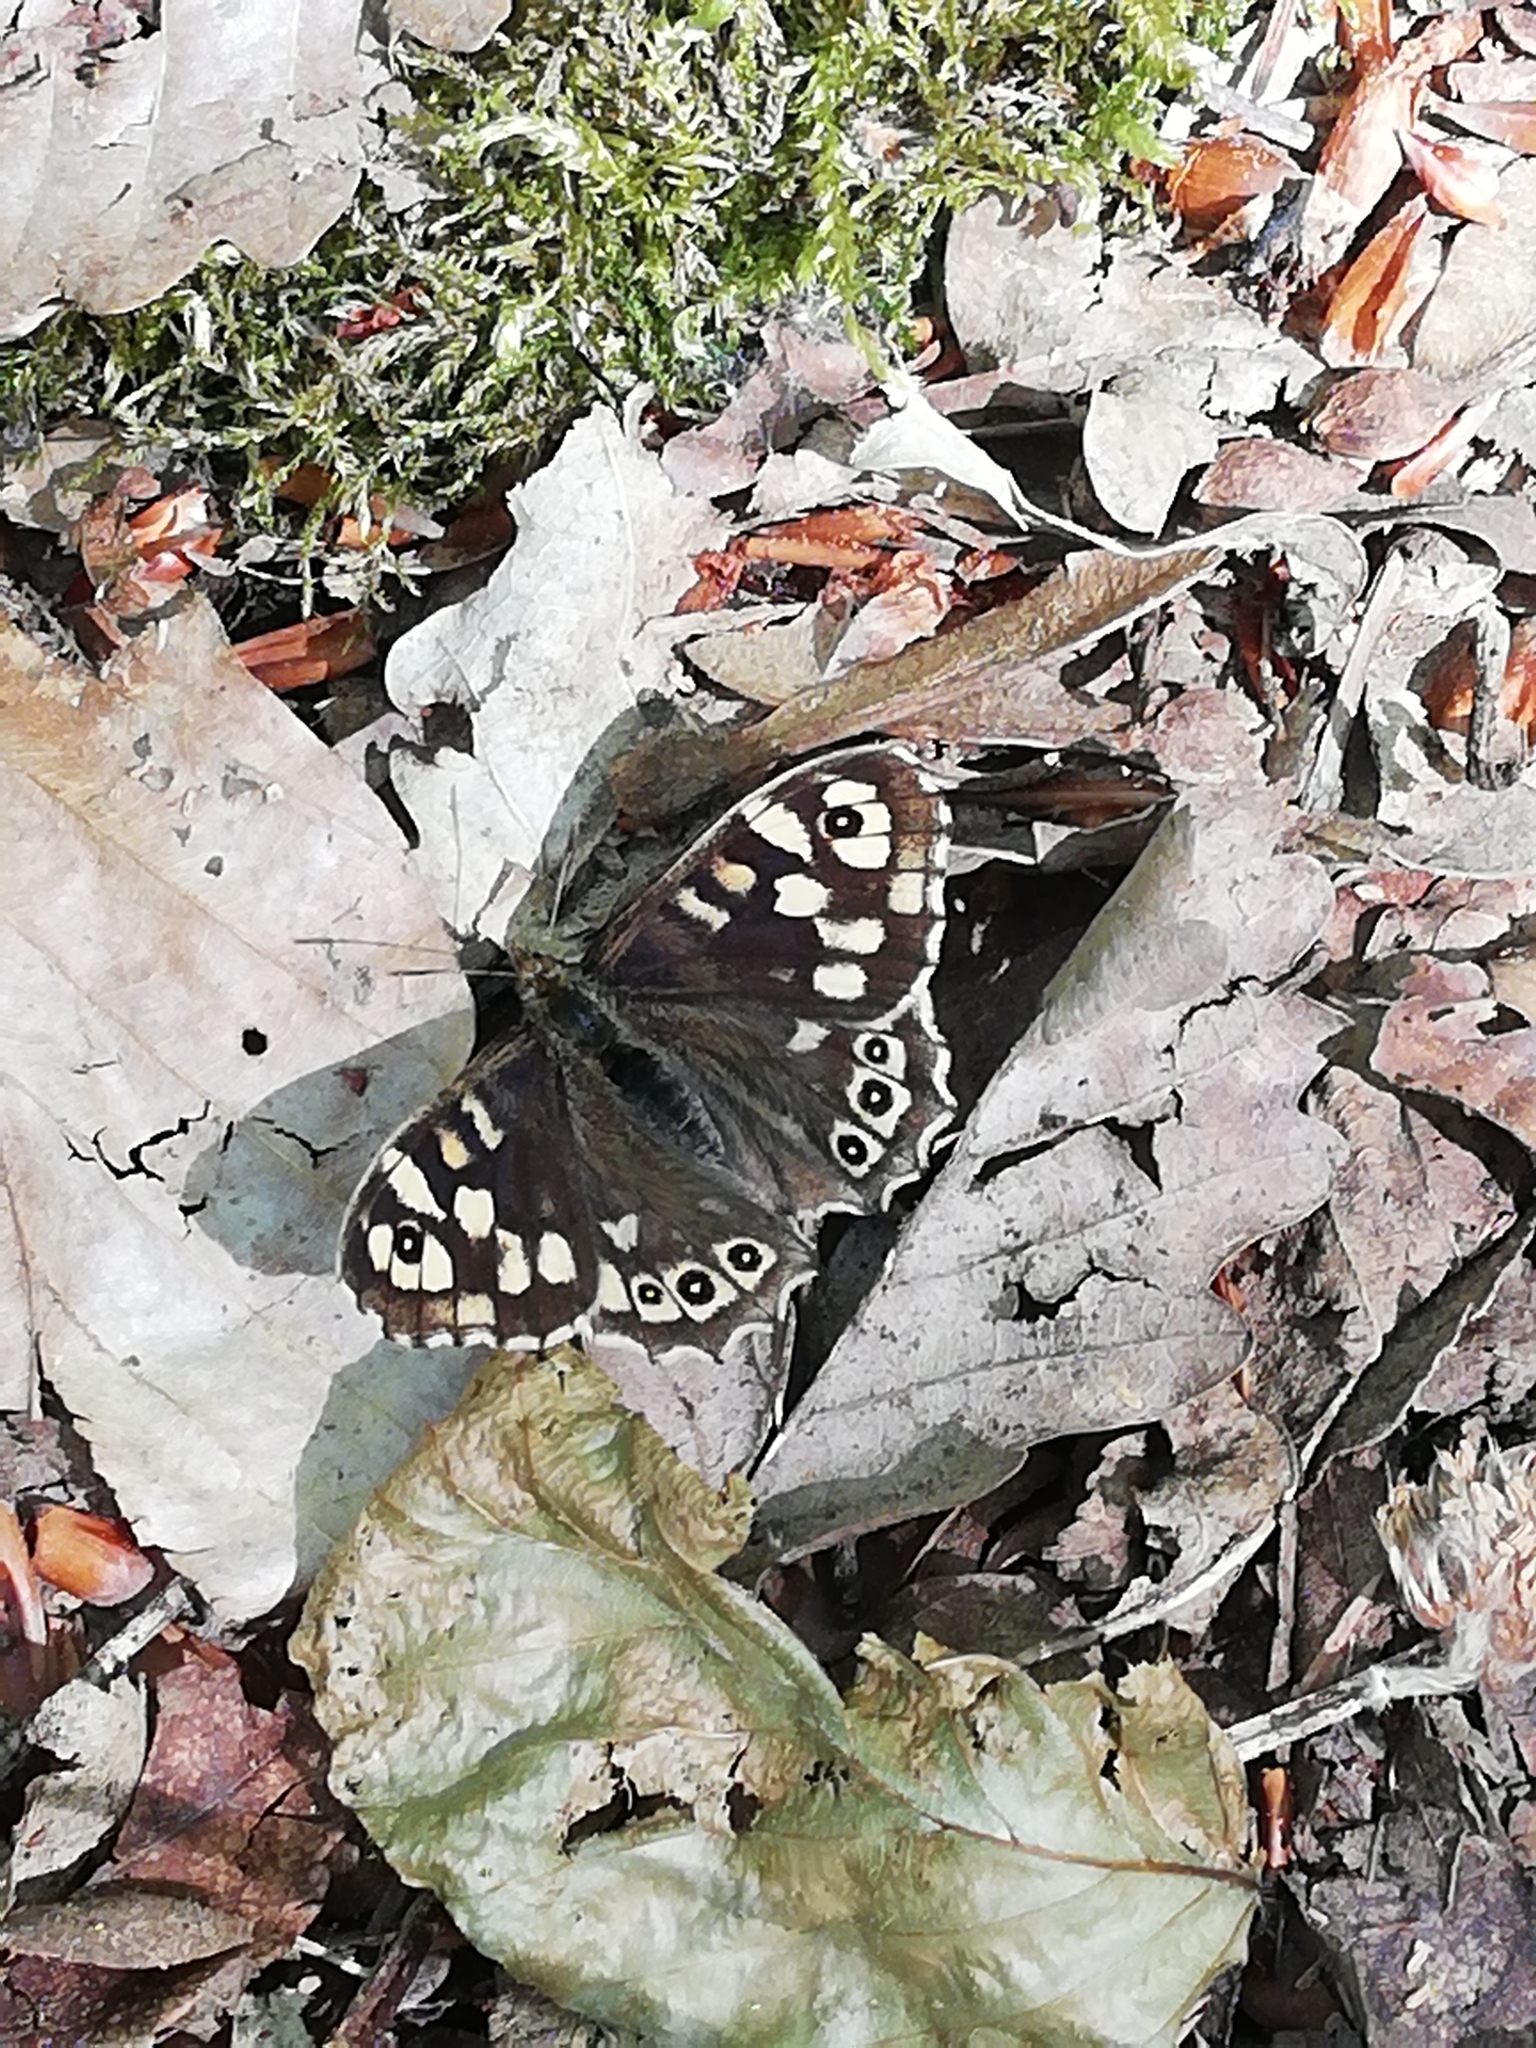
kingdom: Animalia
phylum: Arthropoda
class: Insecta
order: Lepidoptera
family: Nymphalidae
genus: Pararge
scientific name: Pararge aegeria
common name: Speckled wood
